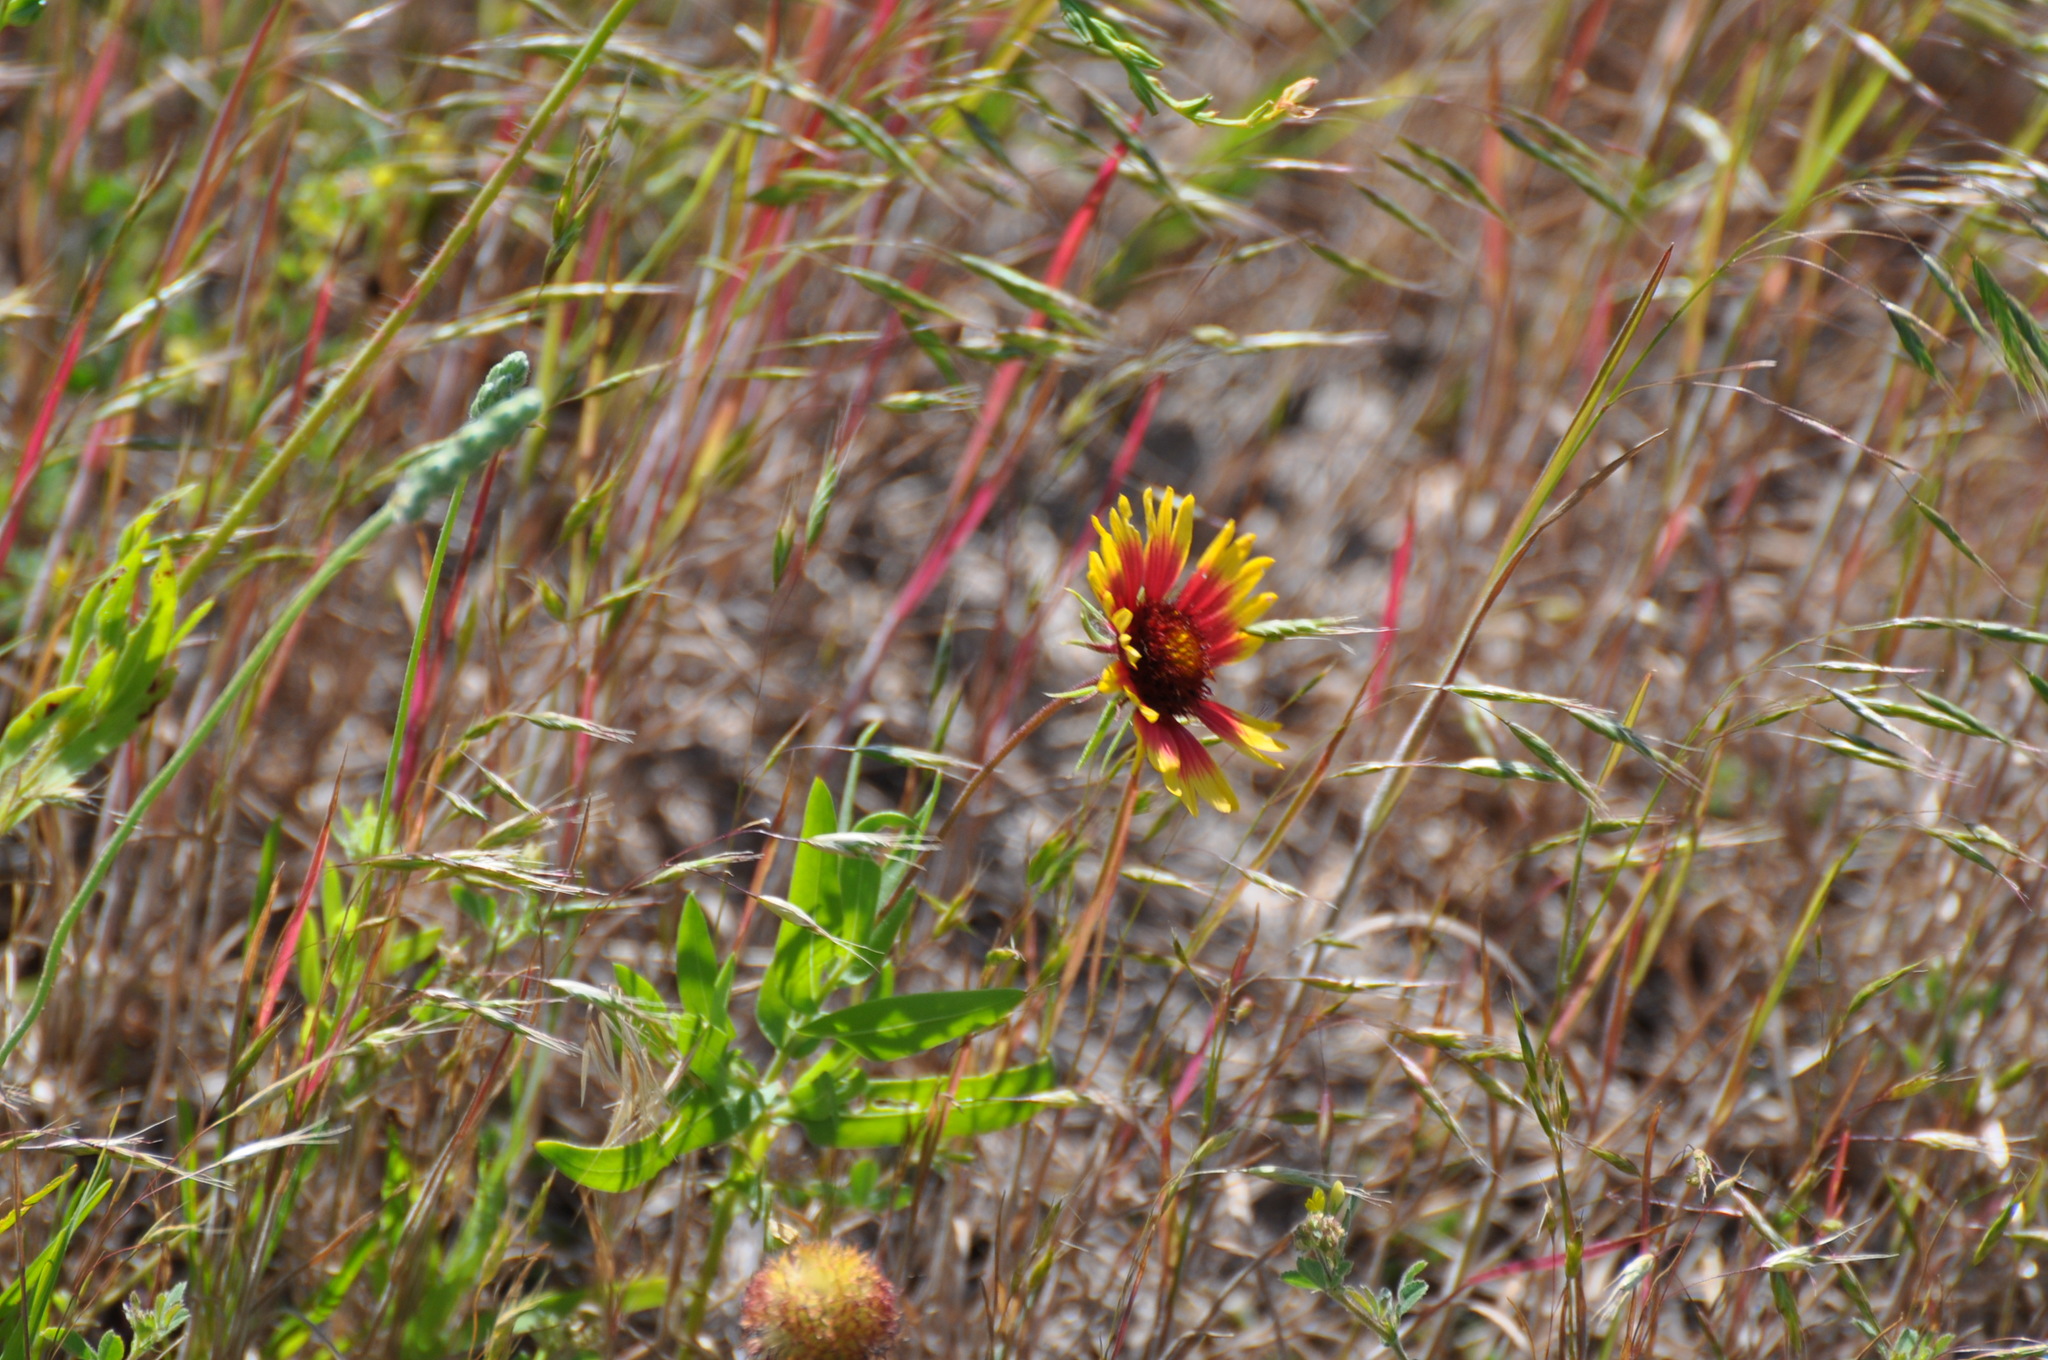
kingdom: Plantae
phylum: Tracheophyta
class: Magnoliopsida
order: Asterales
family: Asteraceae
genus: Gaillardia
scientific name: Gaillardia pulchella
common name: Firewheel
